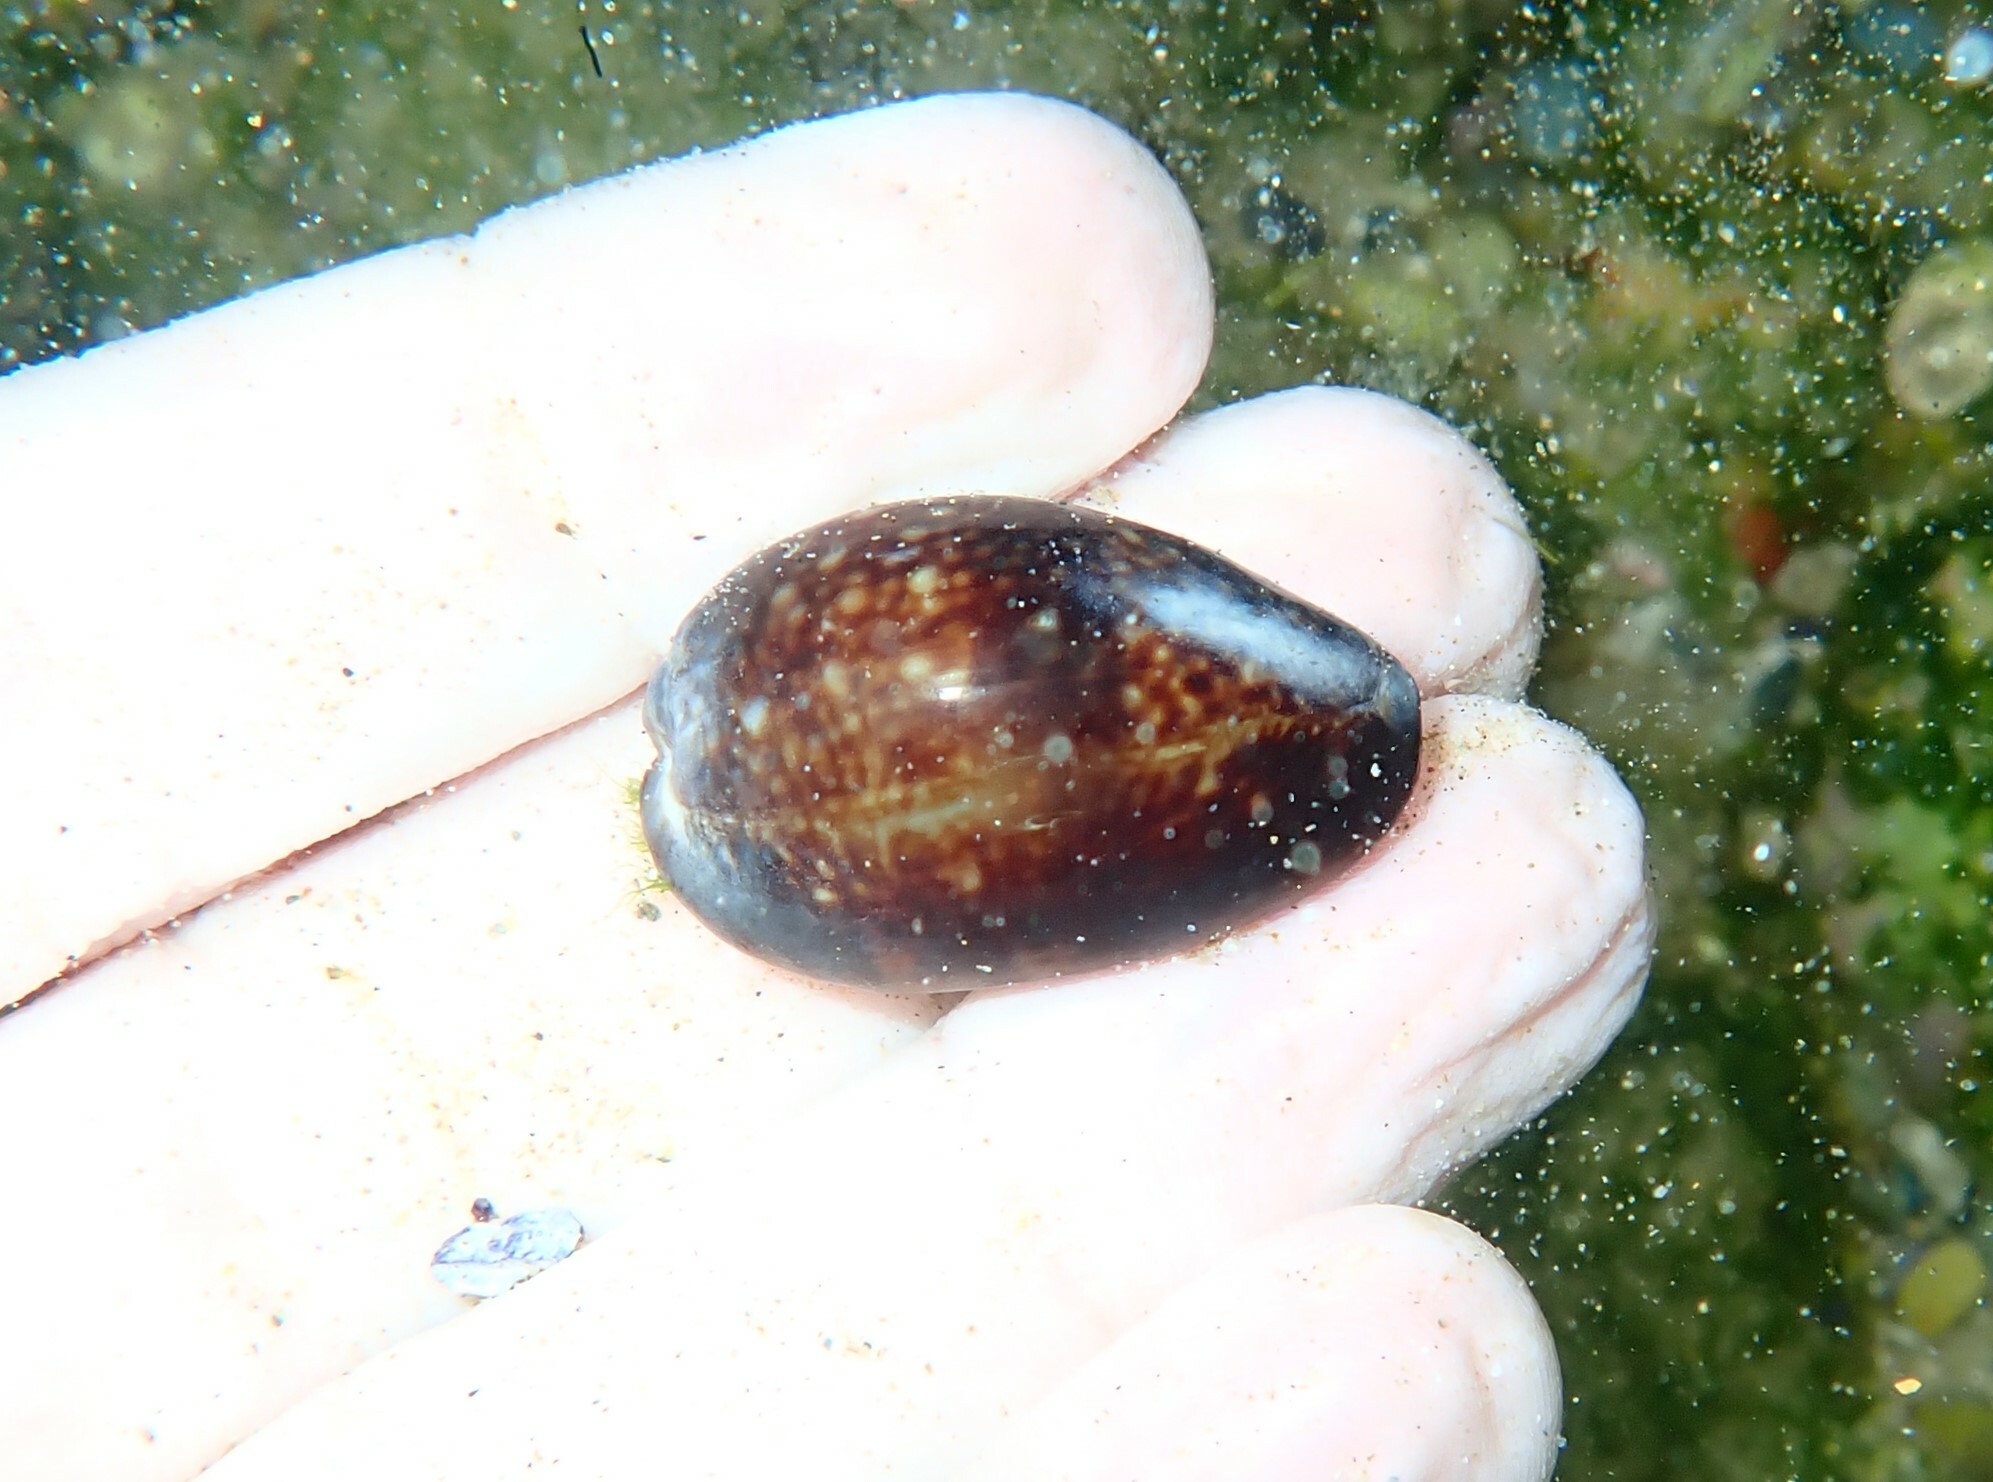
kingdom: Animalia
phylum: Mollusca
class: Gastropoda
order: Littorinimorpha
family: Cypraeidae
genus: Monetaria
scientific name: Monetaria caputserpentis
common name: Serpent's head cowrie
